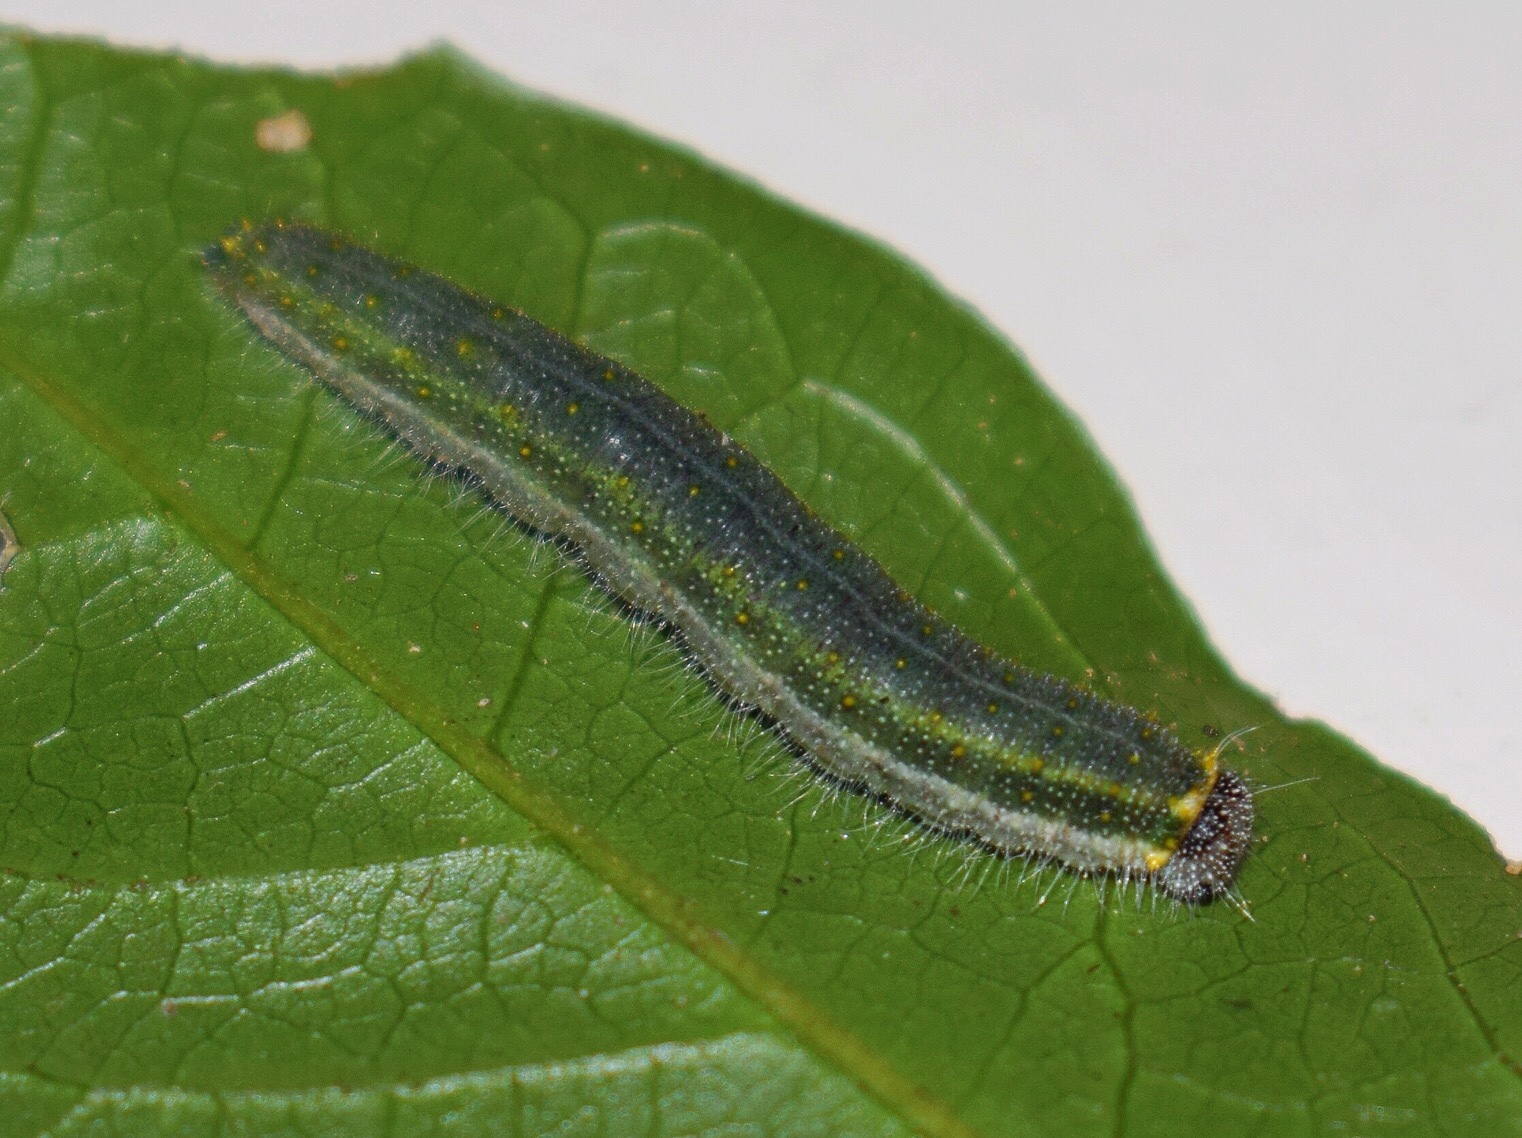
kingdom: Animalia
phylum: Arthropoda
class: Insecta
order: Lepidoptera
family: Pieridae
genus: Belenois
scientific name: Belenois thysa
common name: False dotted border
